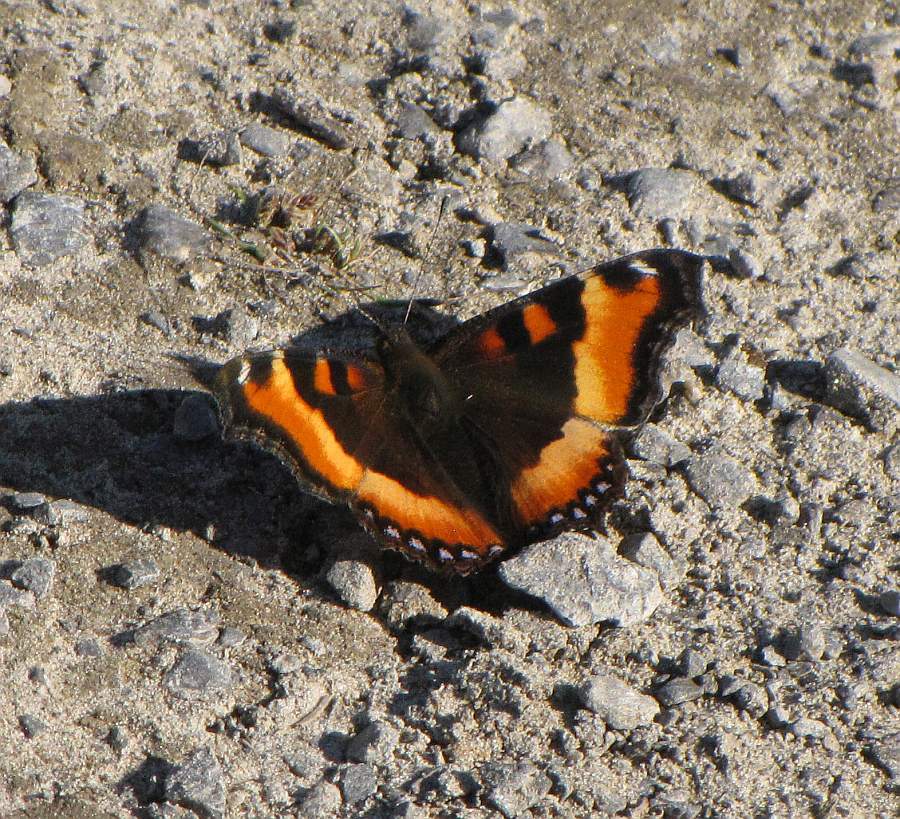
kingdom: Animalia
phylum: Arthropoda
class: Insecta
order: Lepidoptera
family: Nymphalidae
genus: Aglais
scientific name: Aglais milberti
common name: Milbert's tortoiseshell
